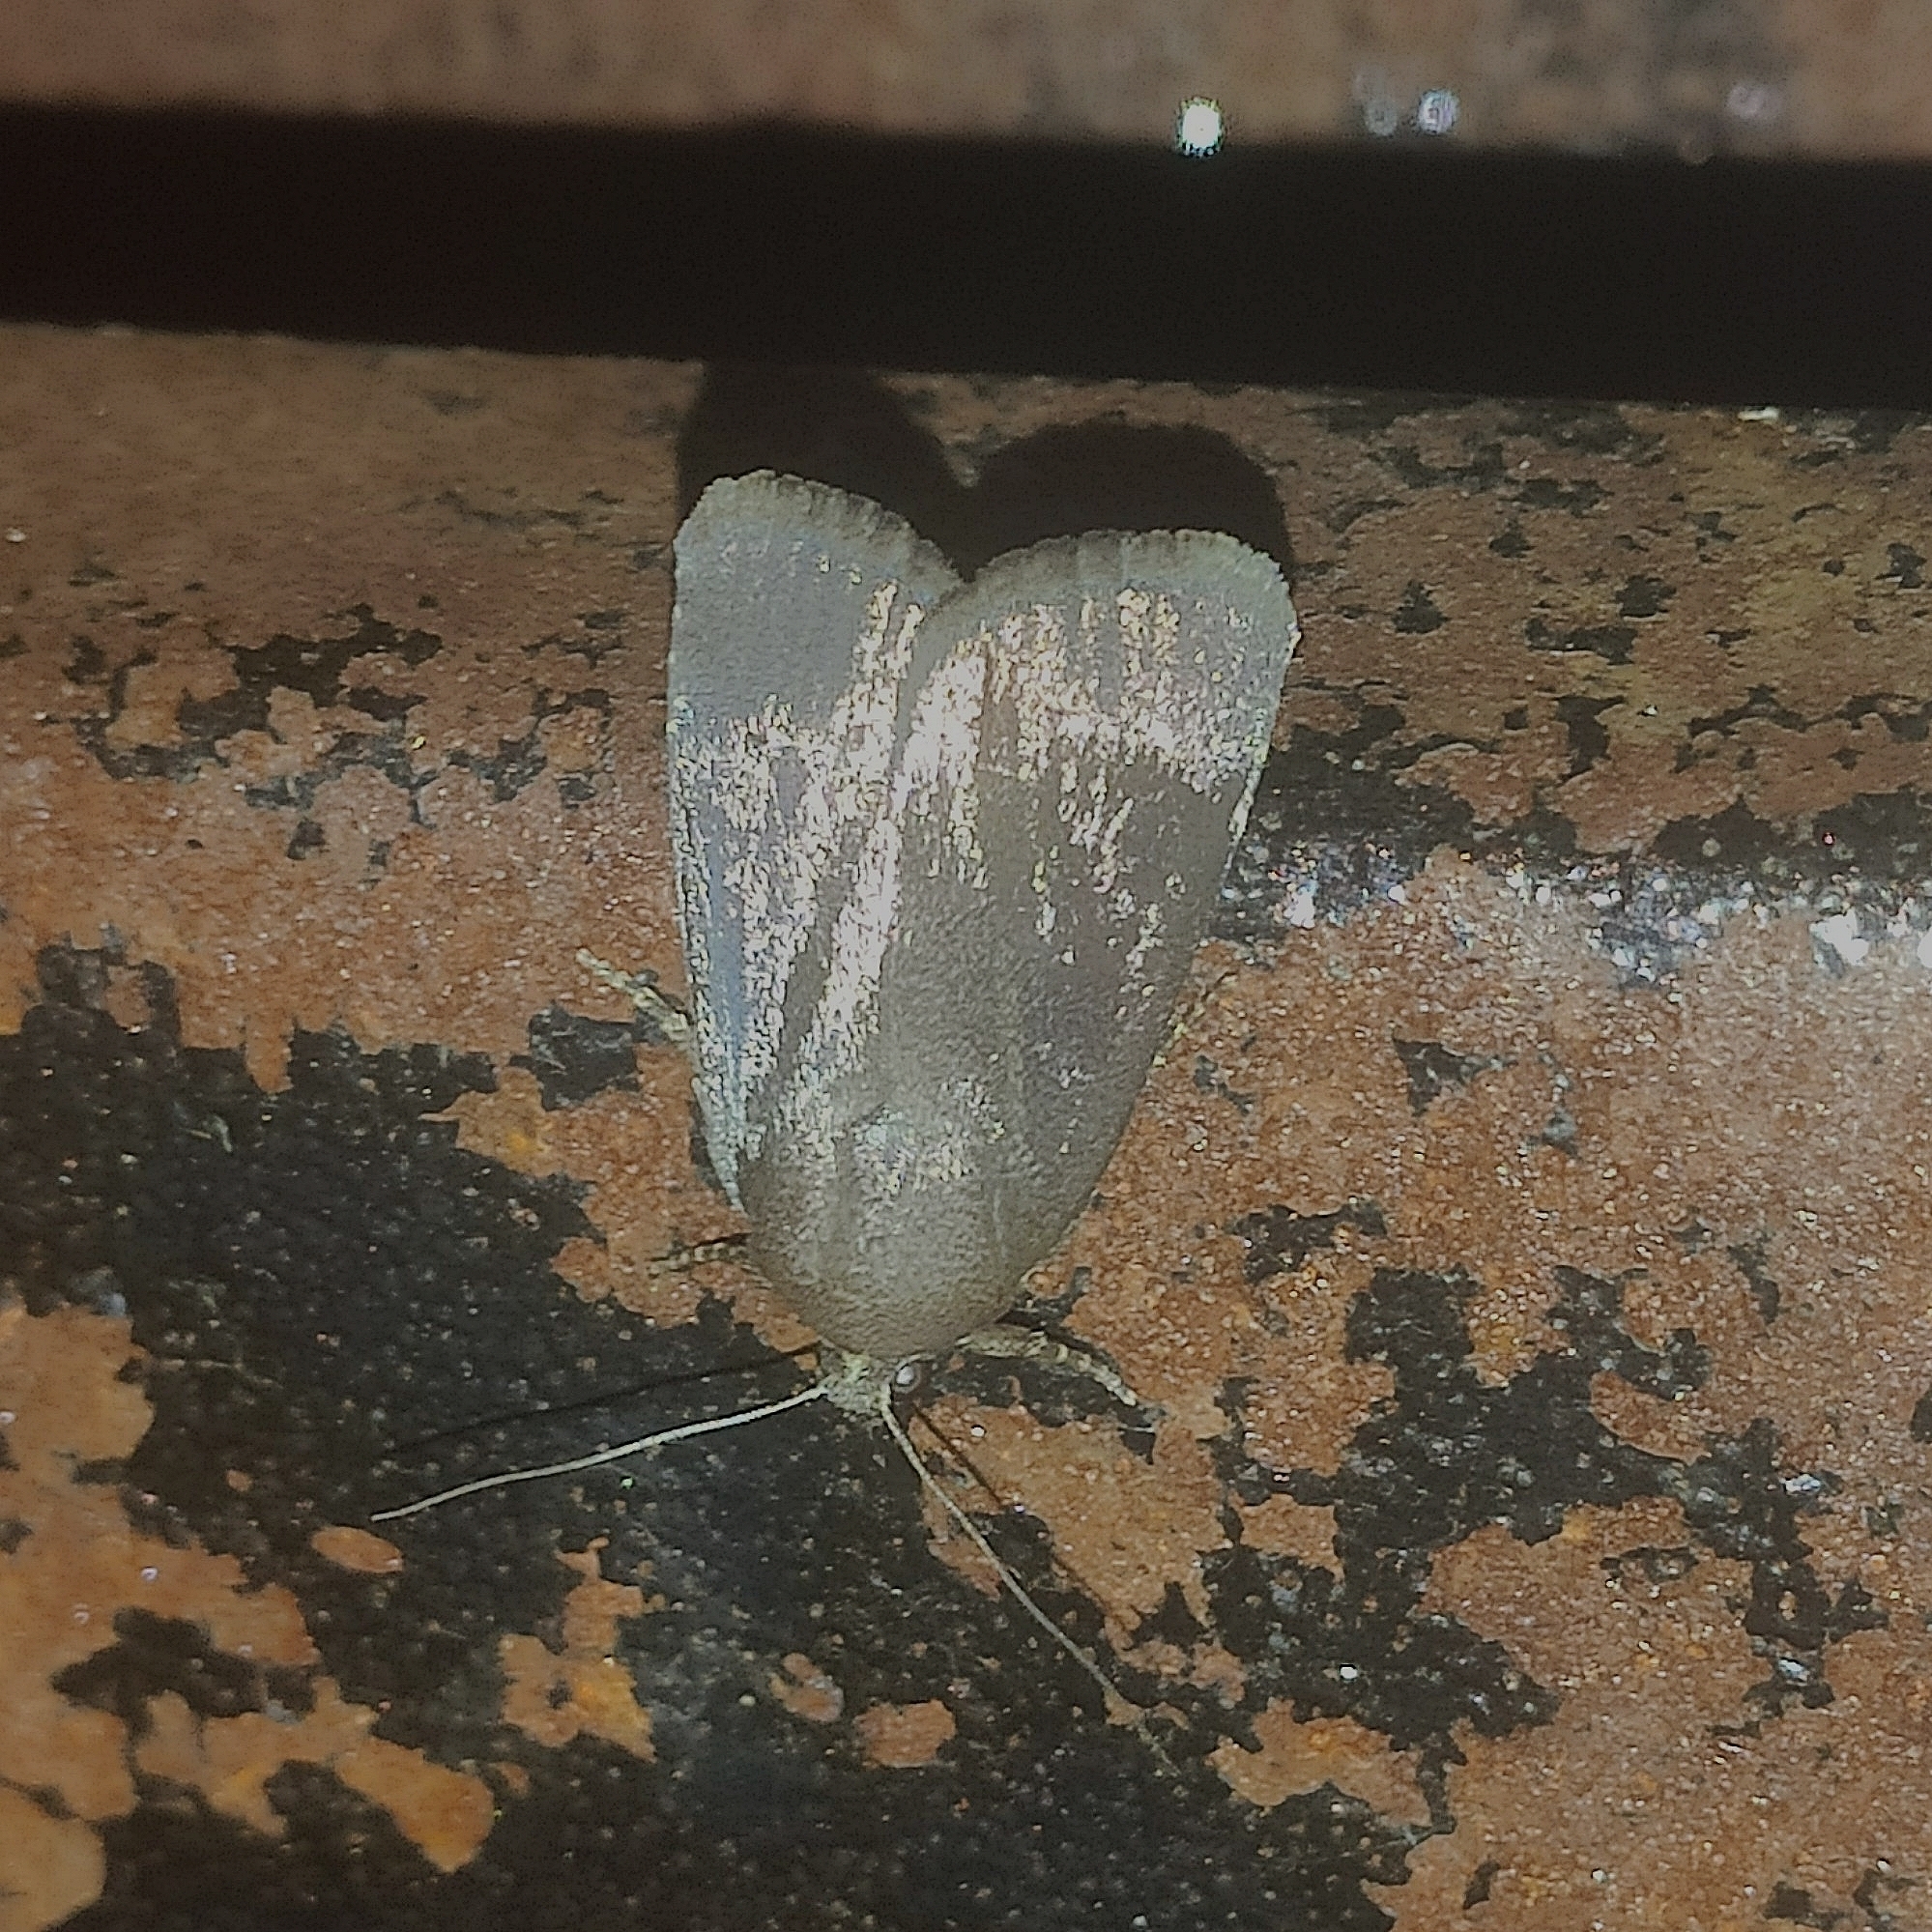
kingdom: Animalia
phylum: Arthropoda
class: Insecta
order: Lepidoptera
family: Noctuidae
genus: Amphipyra
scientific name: Amphipyra livida
